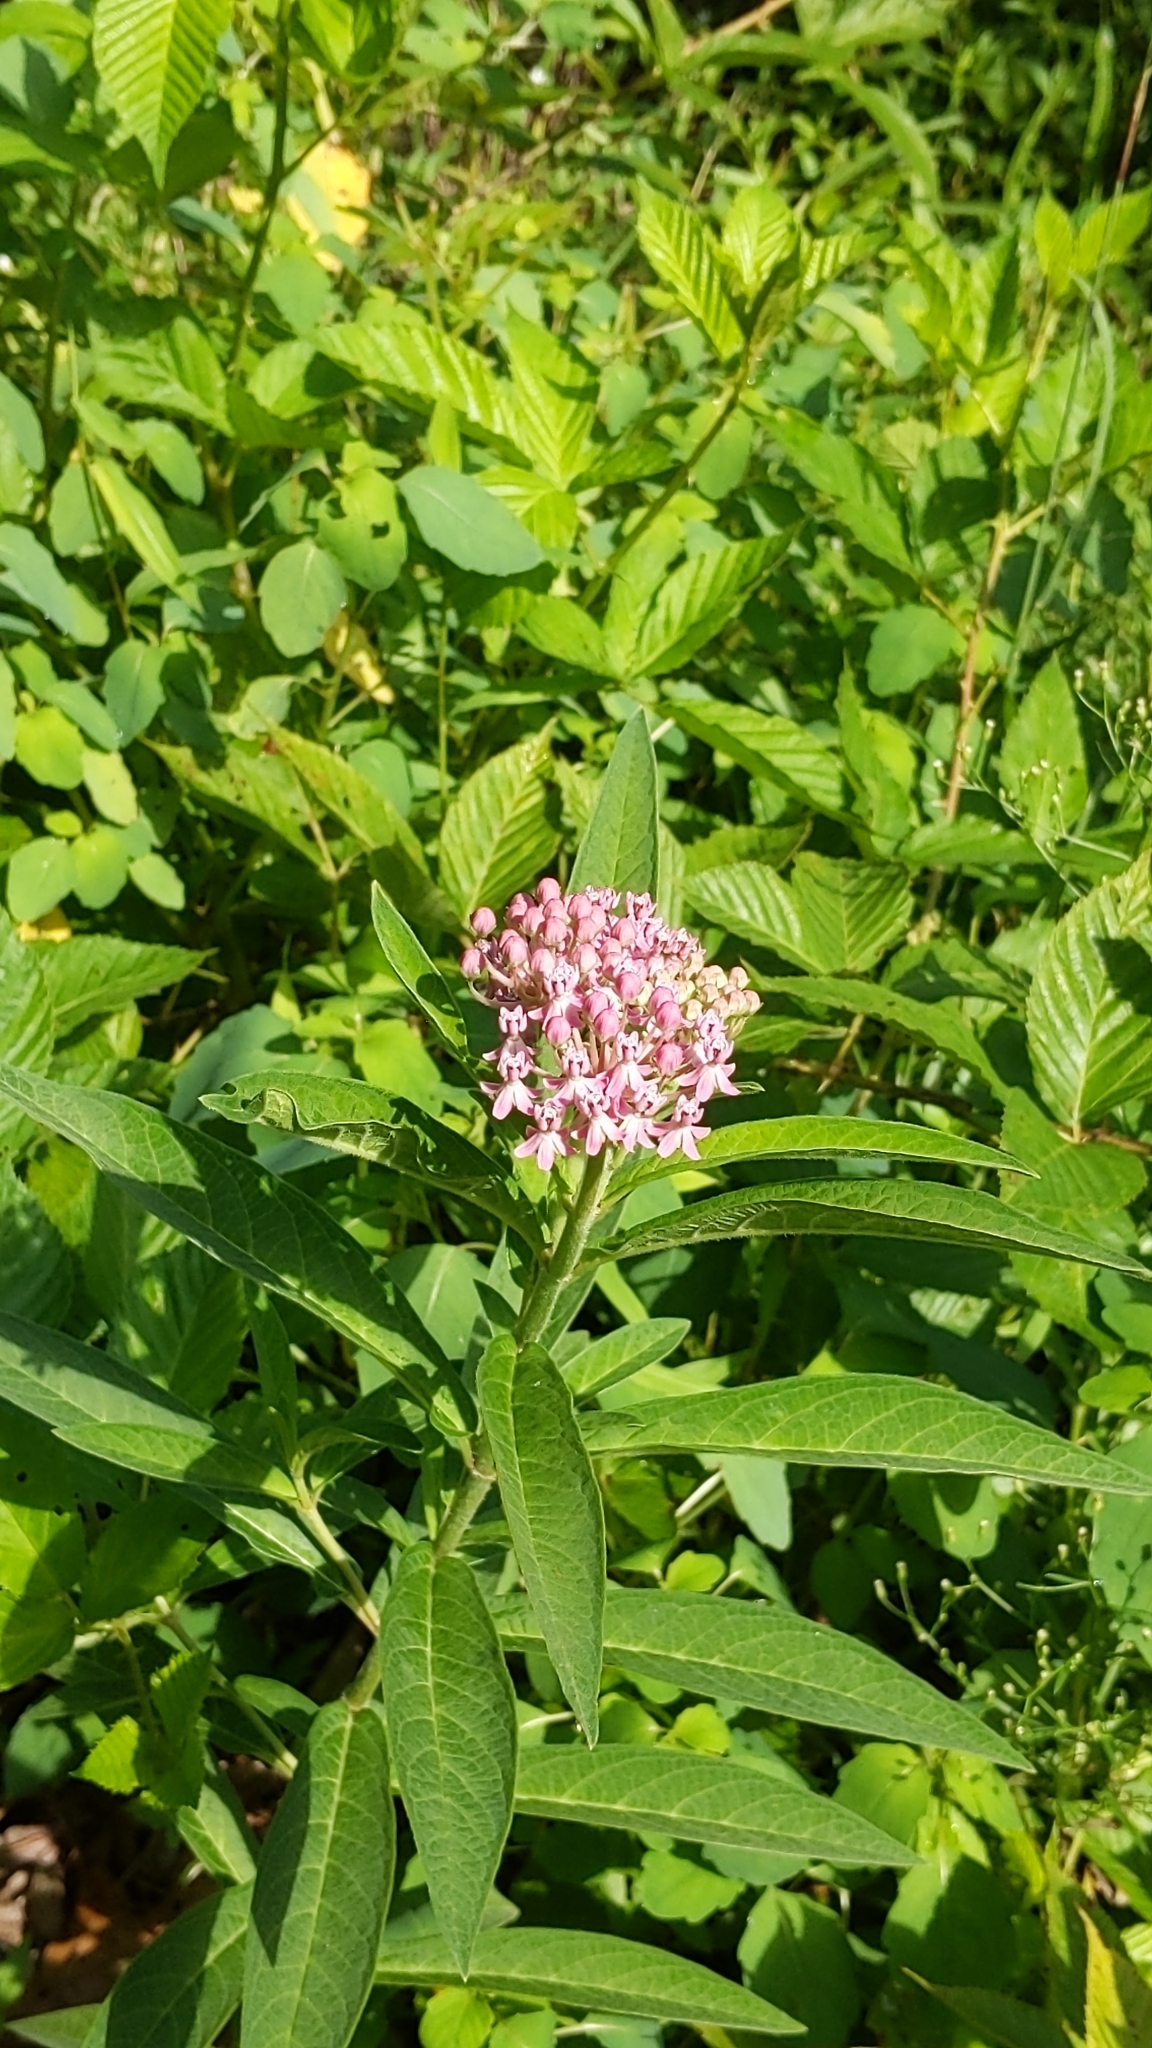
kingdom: Plantae
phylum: Tracheophyta
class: Magnoliopsida
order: Gentianales
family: Apocynaceae
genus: Asclepias
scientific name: Asclepias incarnata
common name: Swamp milkweed
